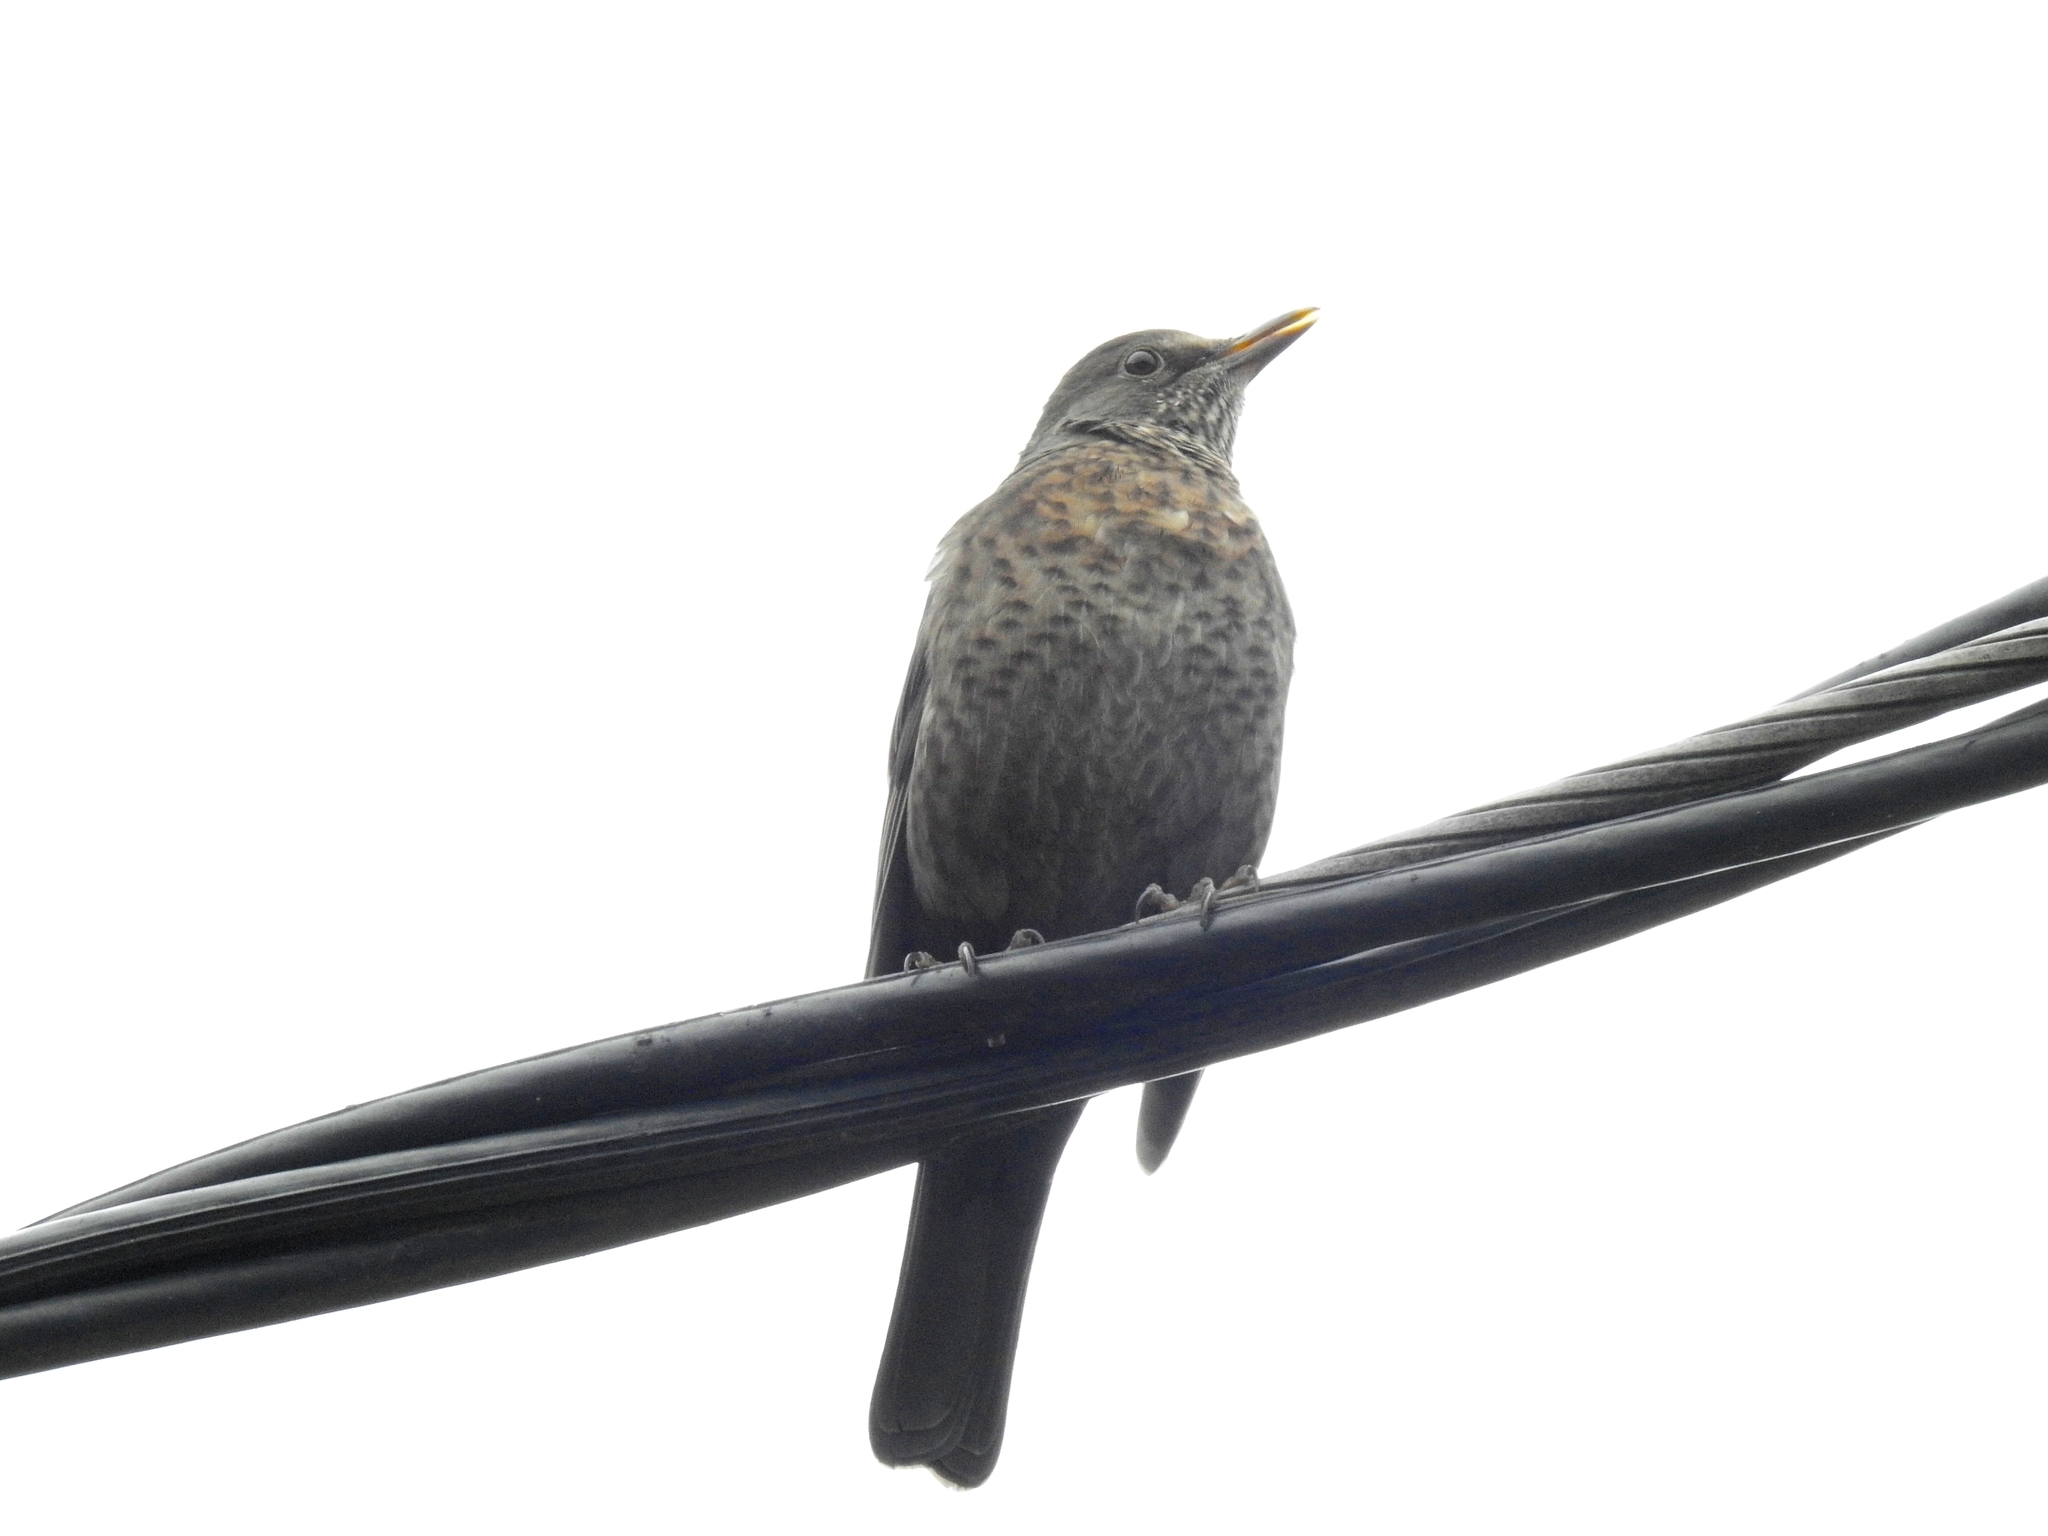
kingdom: Animalia
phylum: Chordata
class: Aves
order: Passeriformes
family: Turdidae
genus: Turdus
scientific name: Turdus merula
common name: Common blackbird
